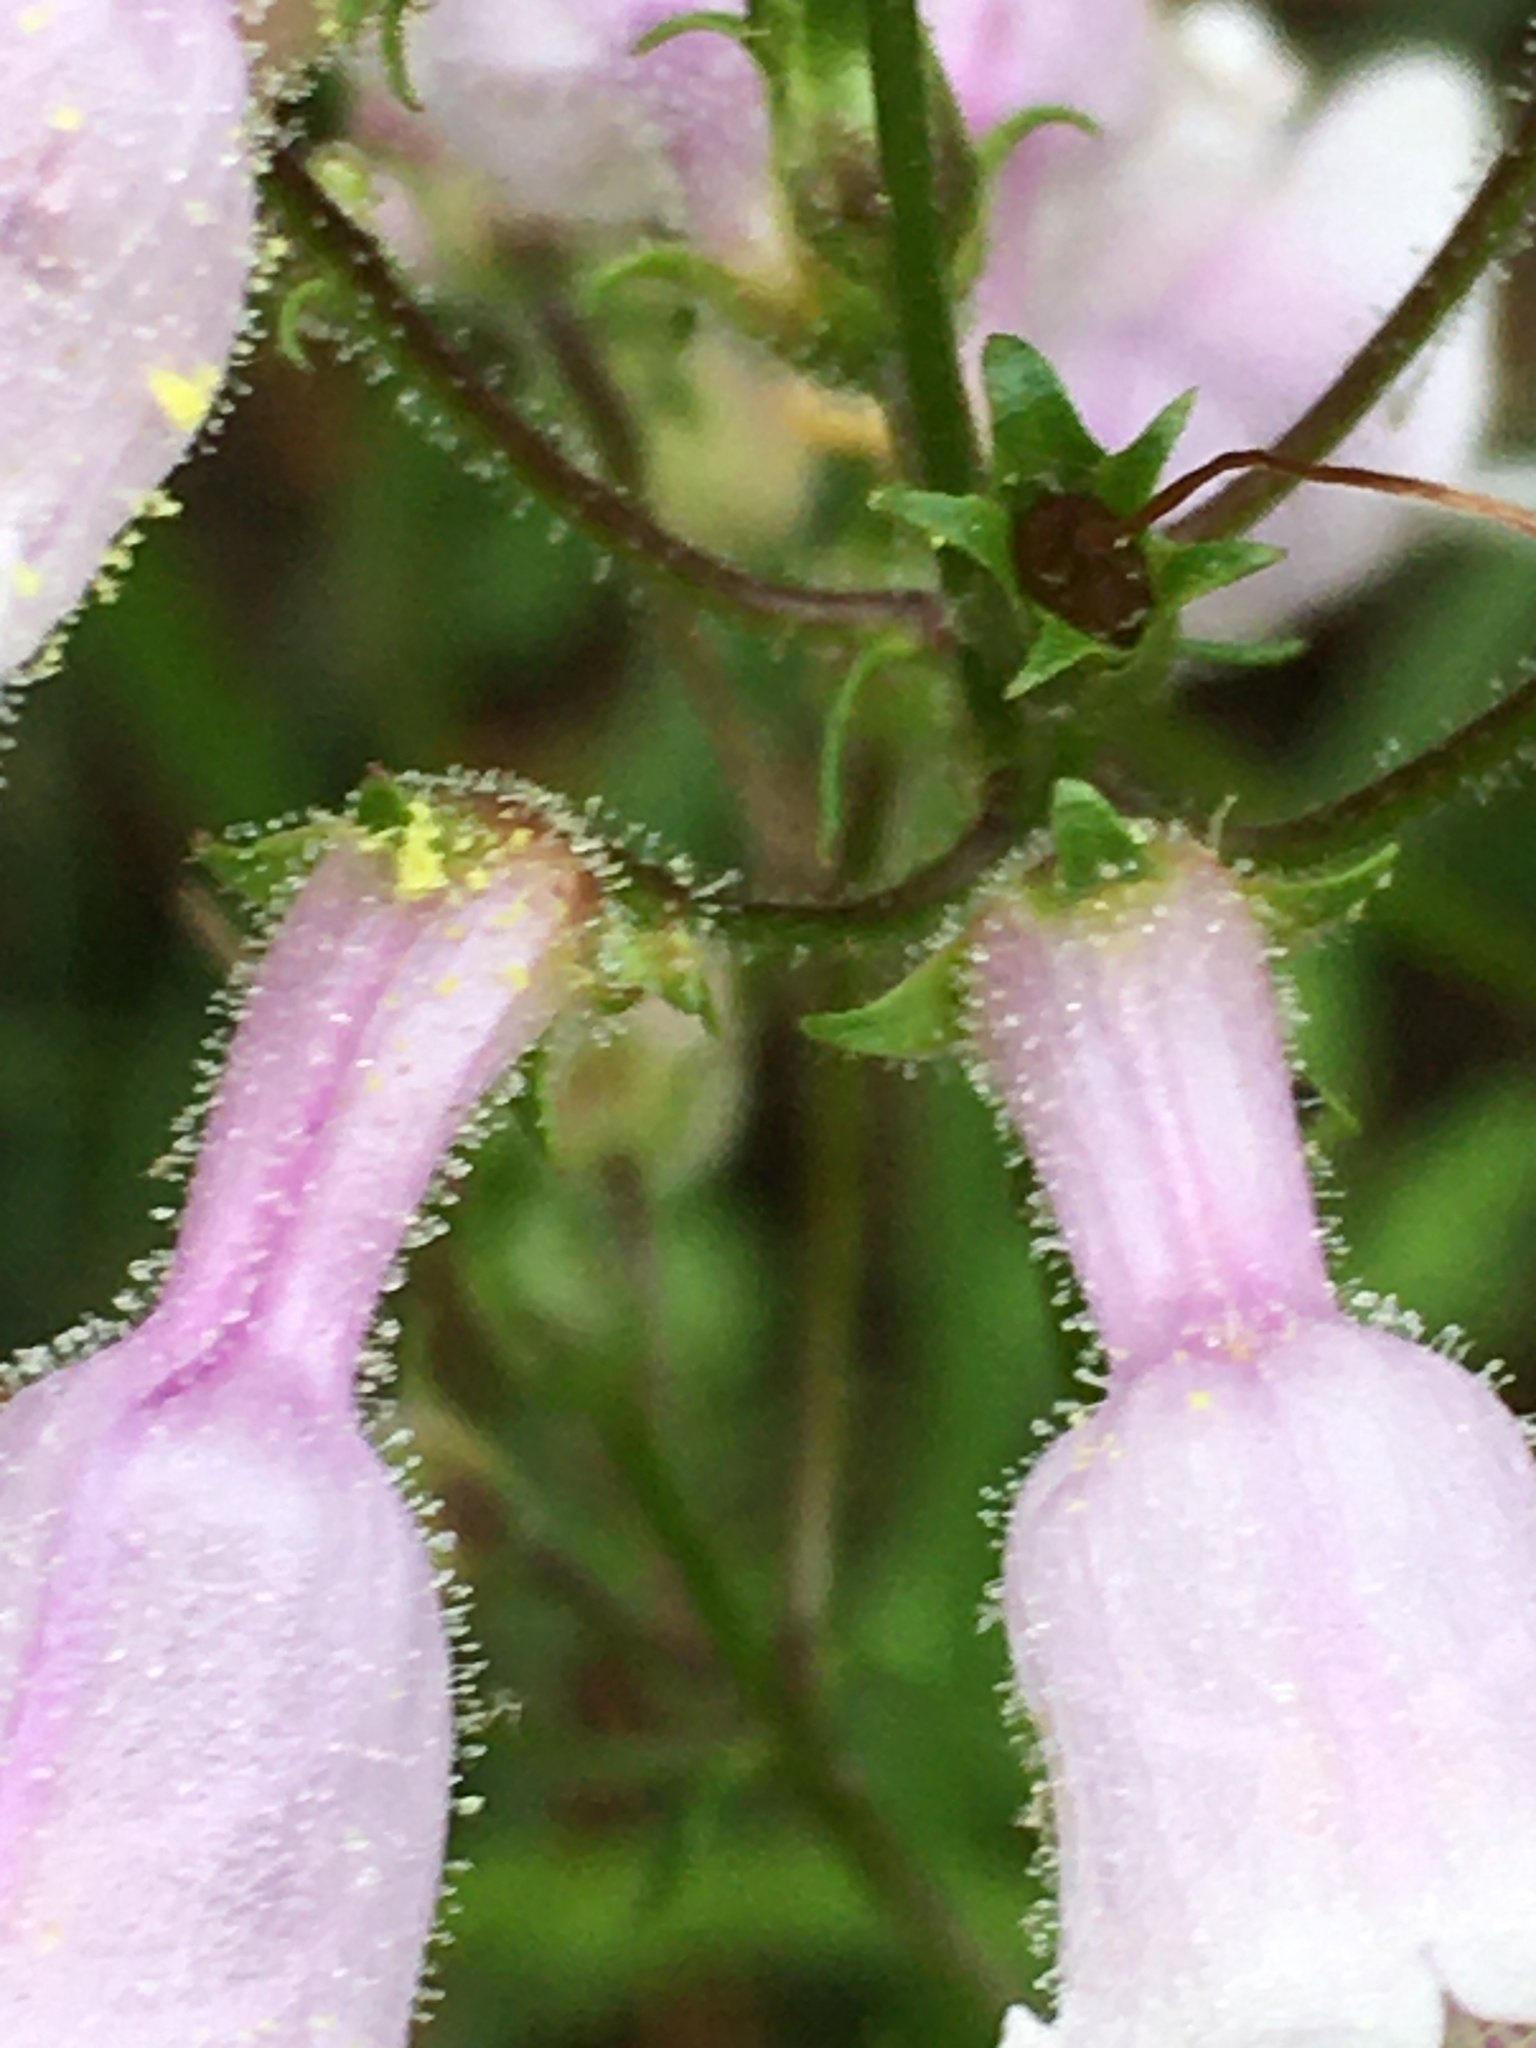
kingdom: Plantae
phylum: Tracheophyta
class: Magnoliopsida
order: Lamiales
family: Plantaginaceae
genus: Penstemon
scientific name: Penstemon laevigatus
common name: Eastern beardtongue
